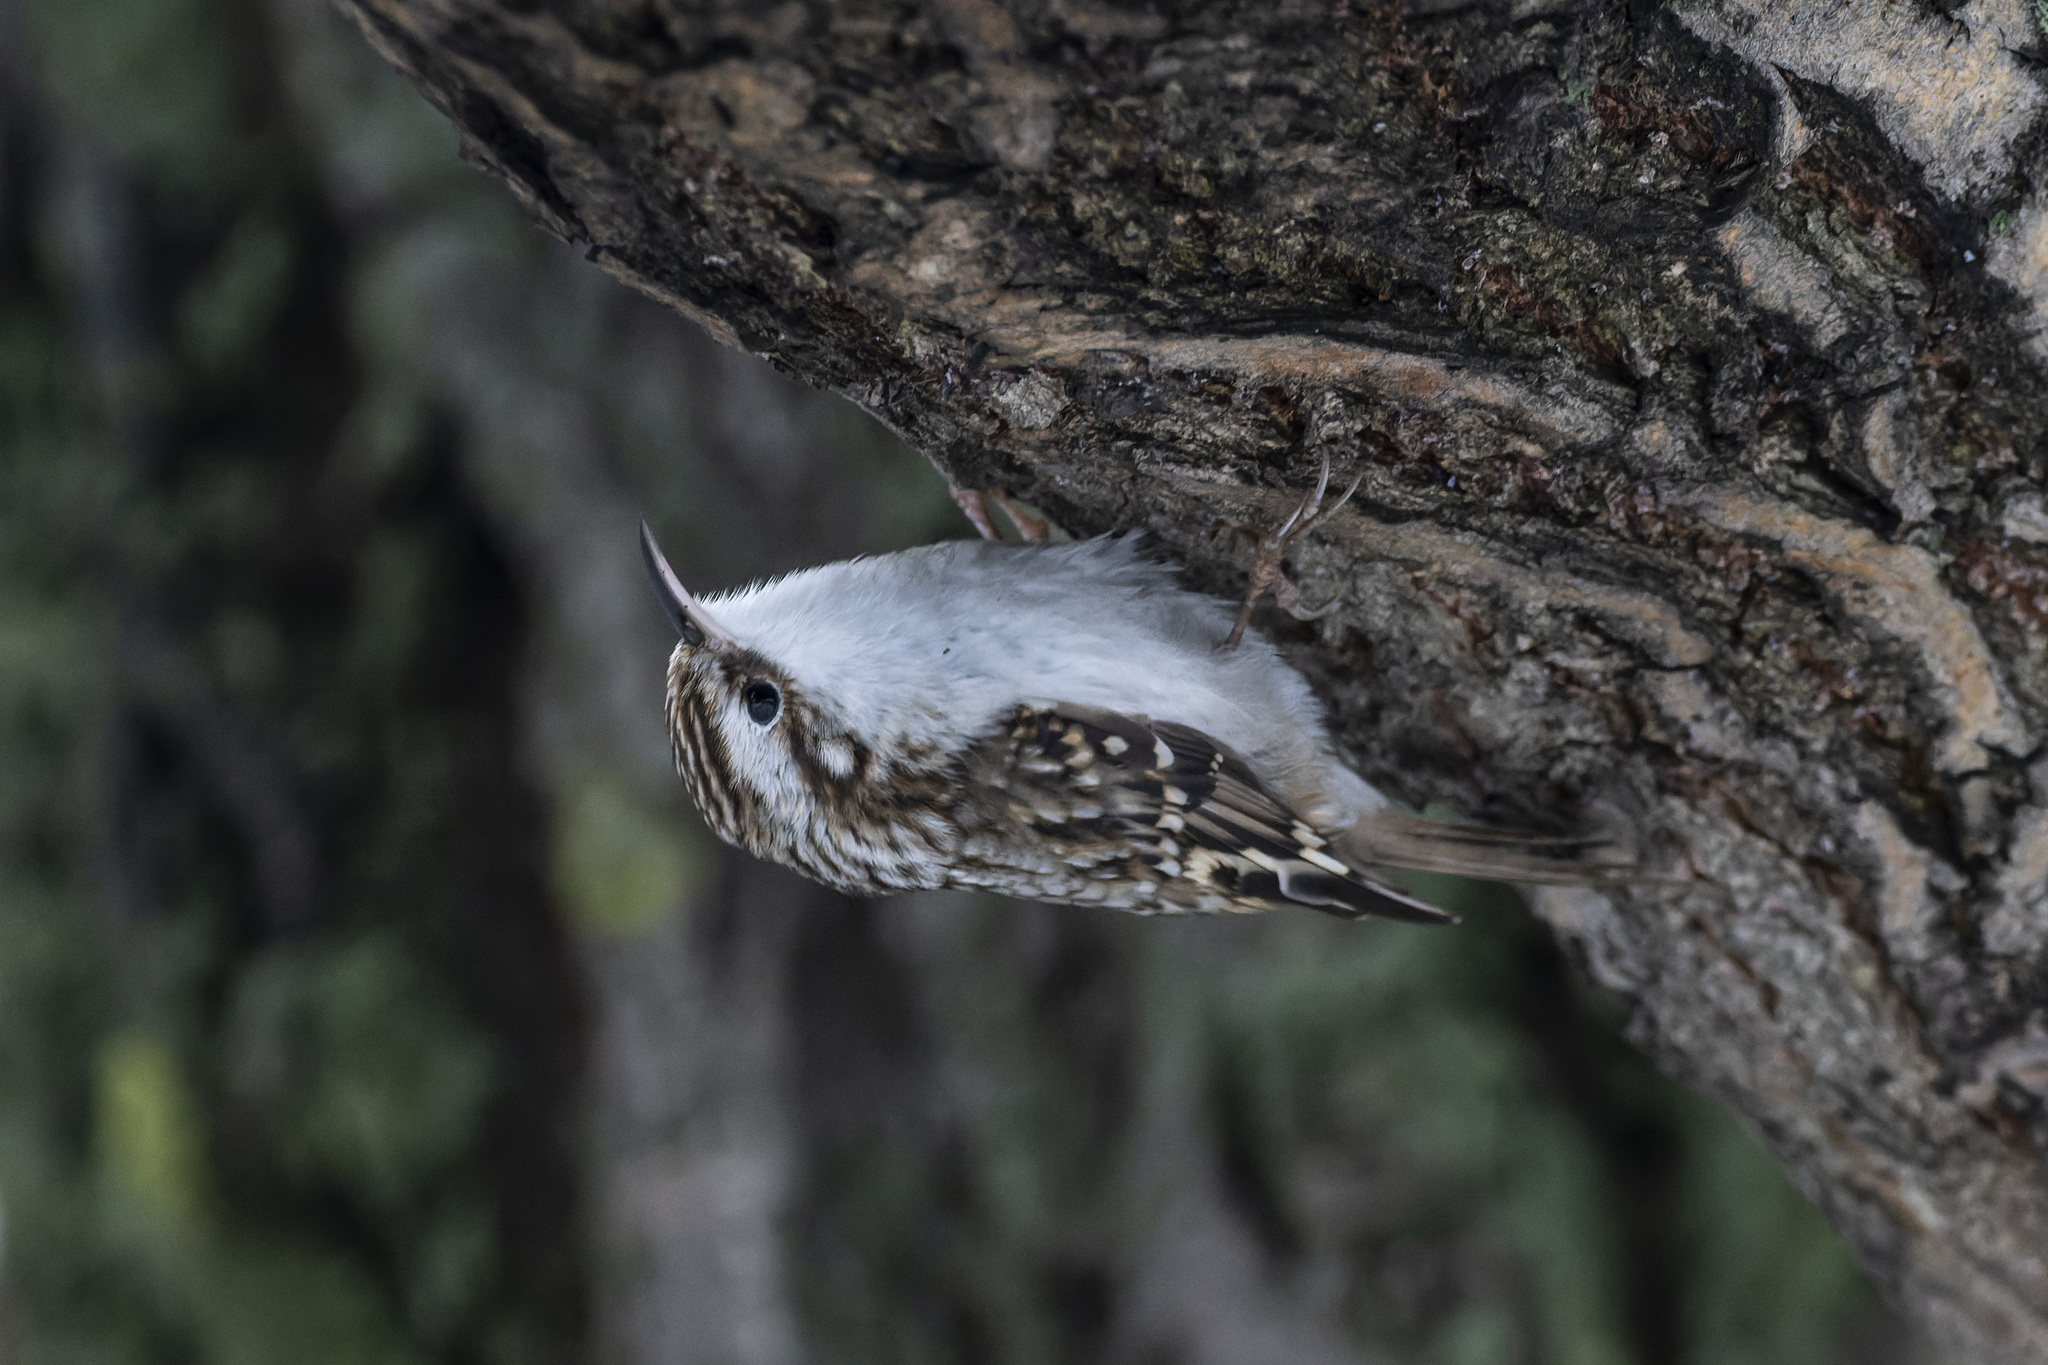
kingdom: Animalia
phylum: Chordata
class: Aves
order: Passeriformes
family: Certhiidae
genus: Certhia
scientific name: Certhia familiaris
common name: Eurasian treecreeper
